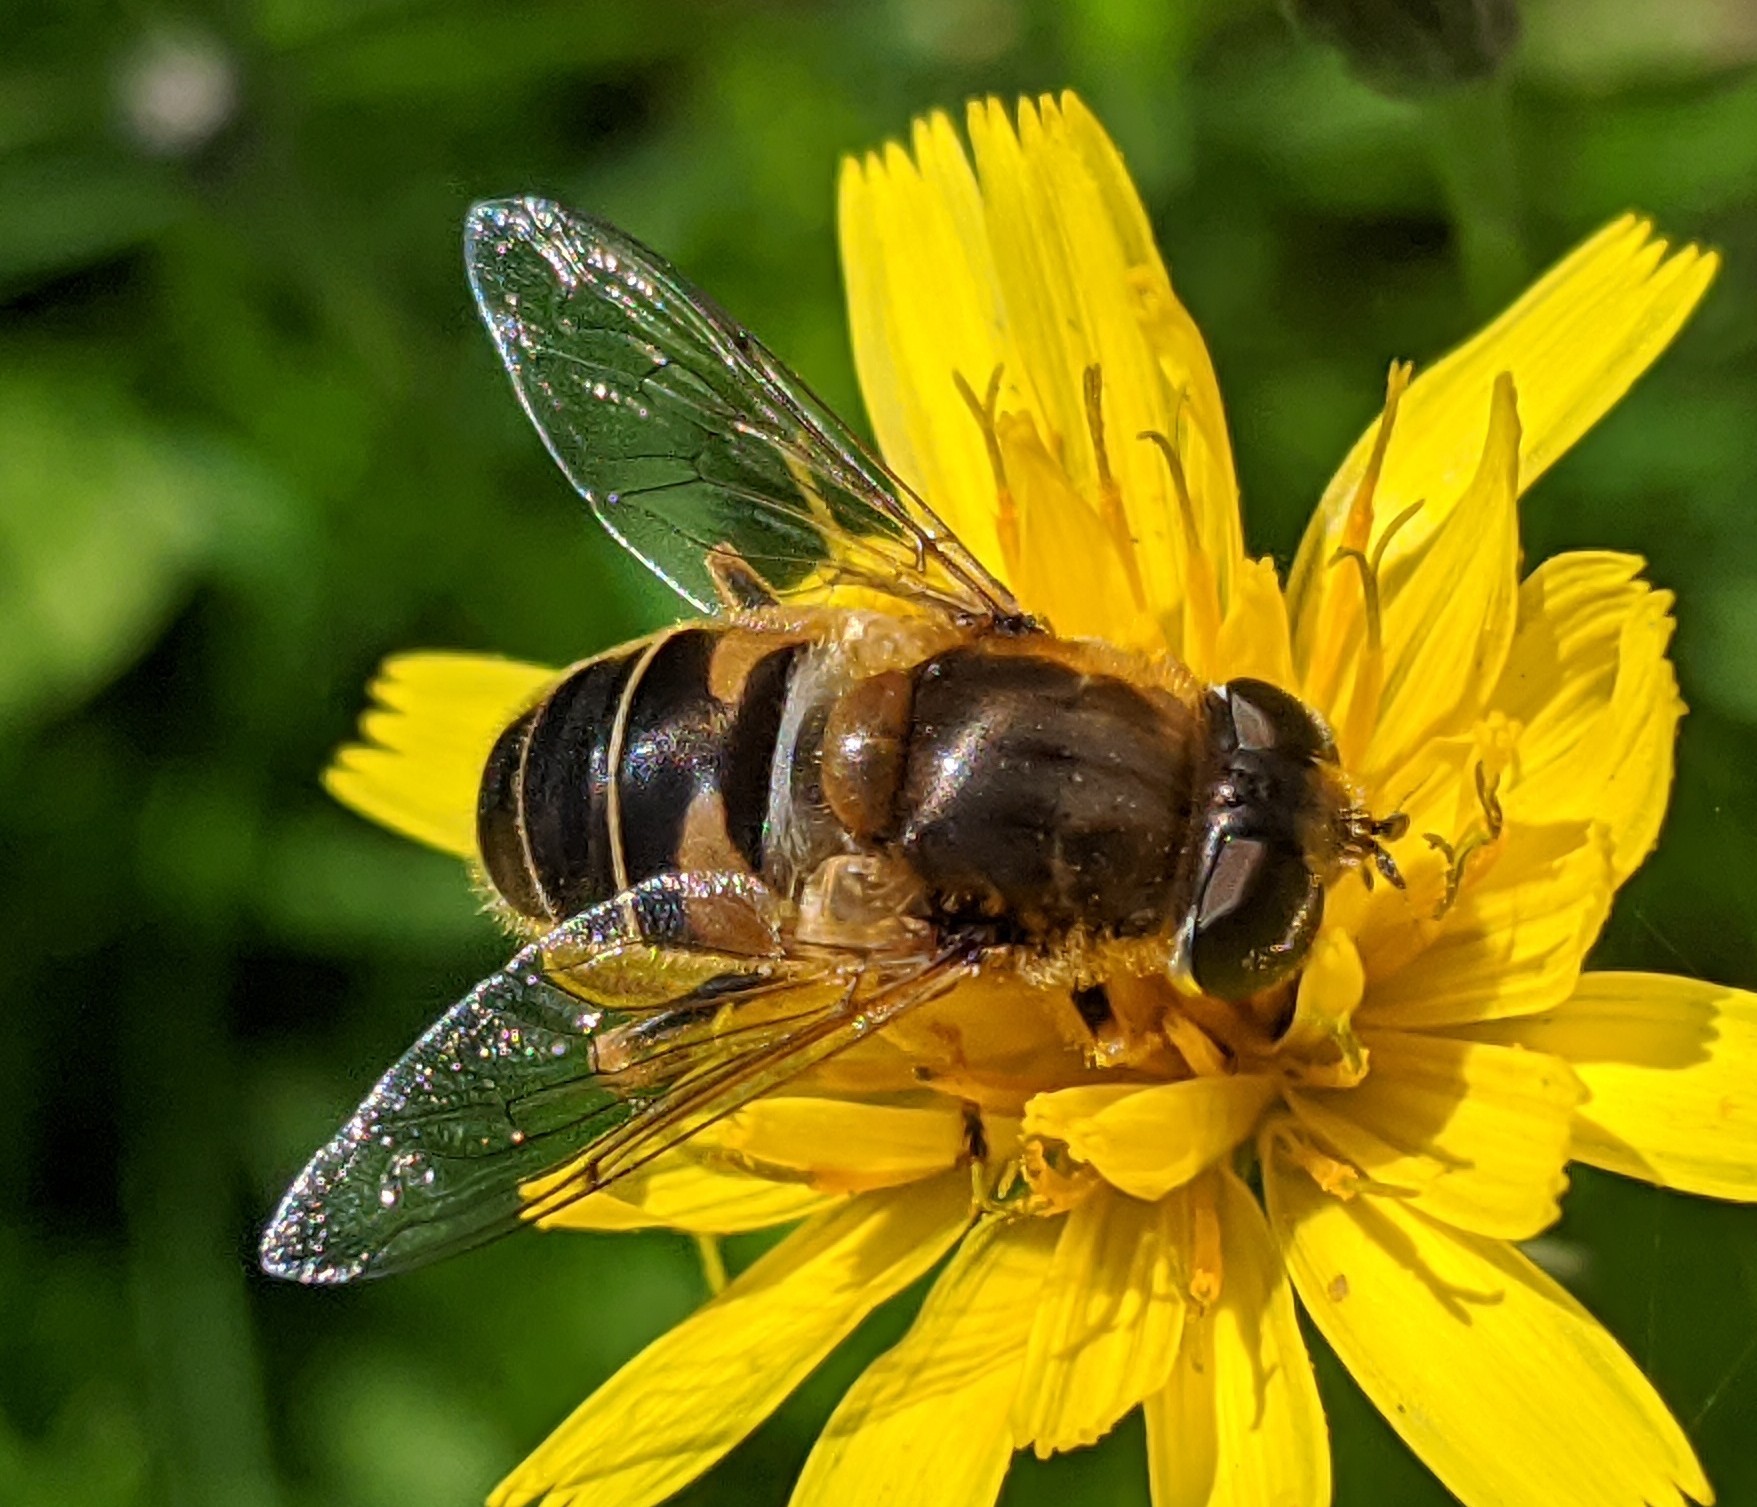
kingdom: Animalia
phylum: Arthropoda
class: Insecta
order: Diptera
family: Syrphidae
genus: Eristalis
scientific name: Eristalis nemorum
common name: Orange-spined drone fly
